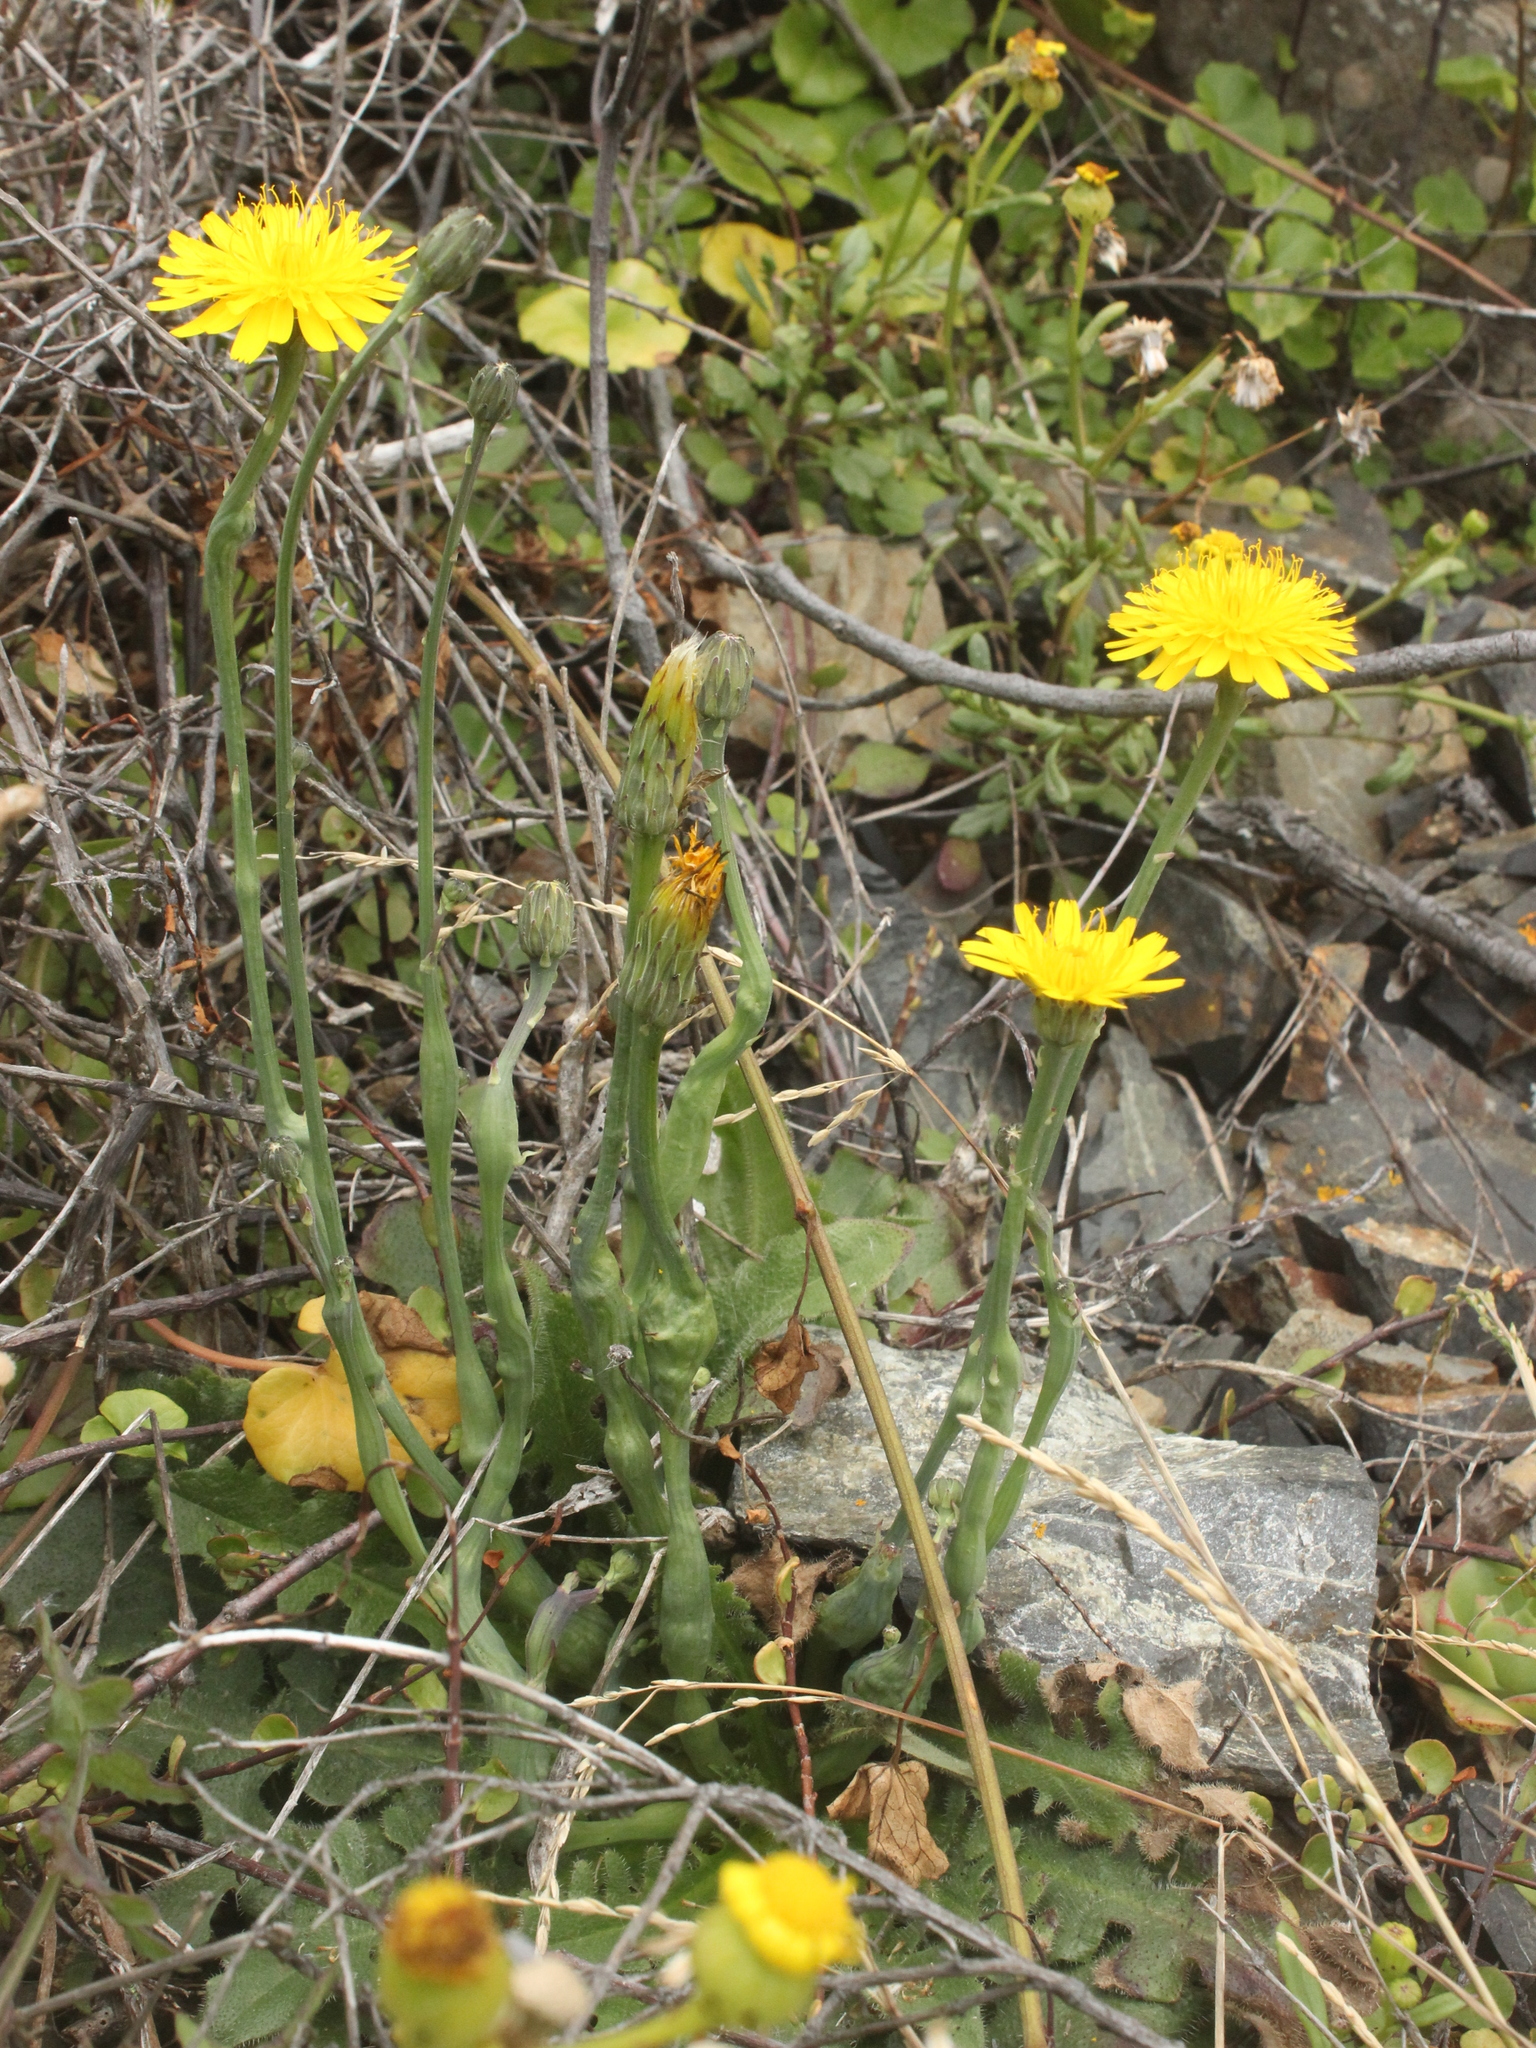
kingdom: Plantae
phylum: Tracheophyta
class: Magnoliopsida
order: Asterales
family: Asteraceae
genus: Hypochaeris
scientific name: Hypochaeris radicata
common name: Flatweed
